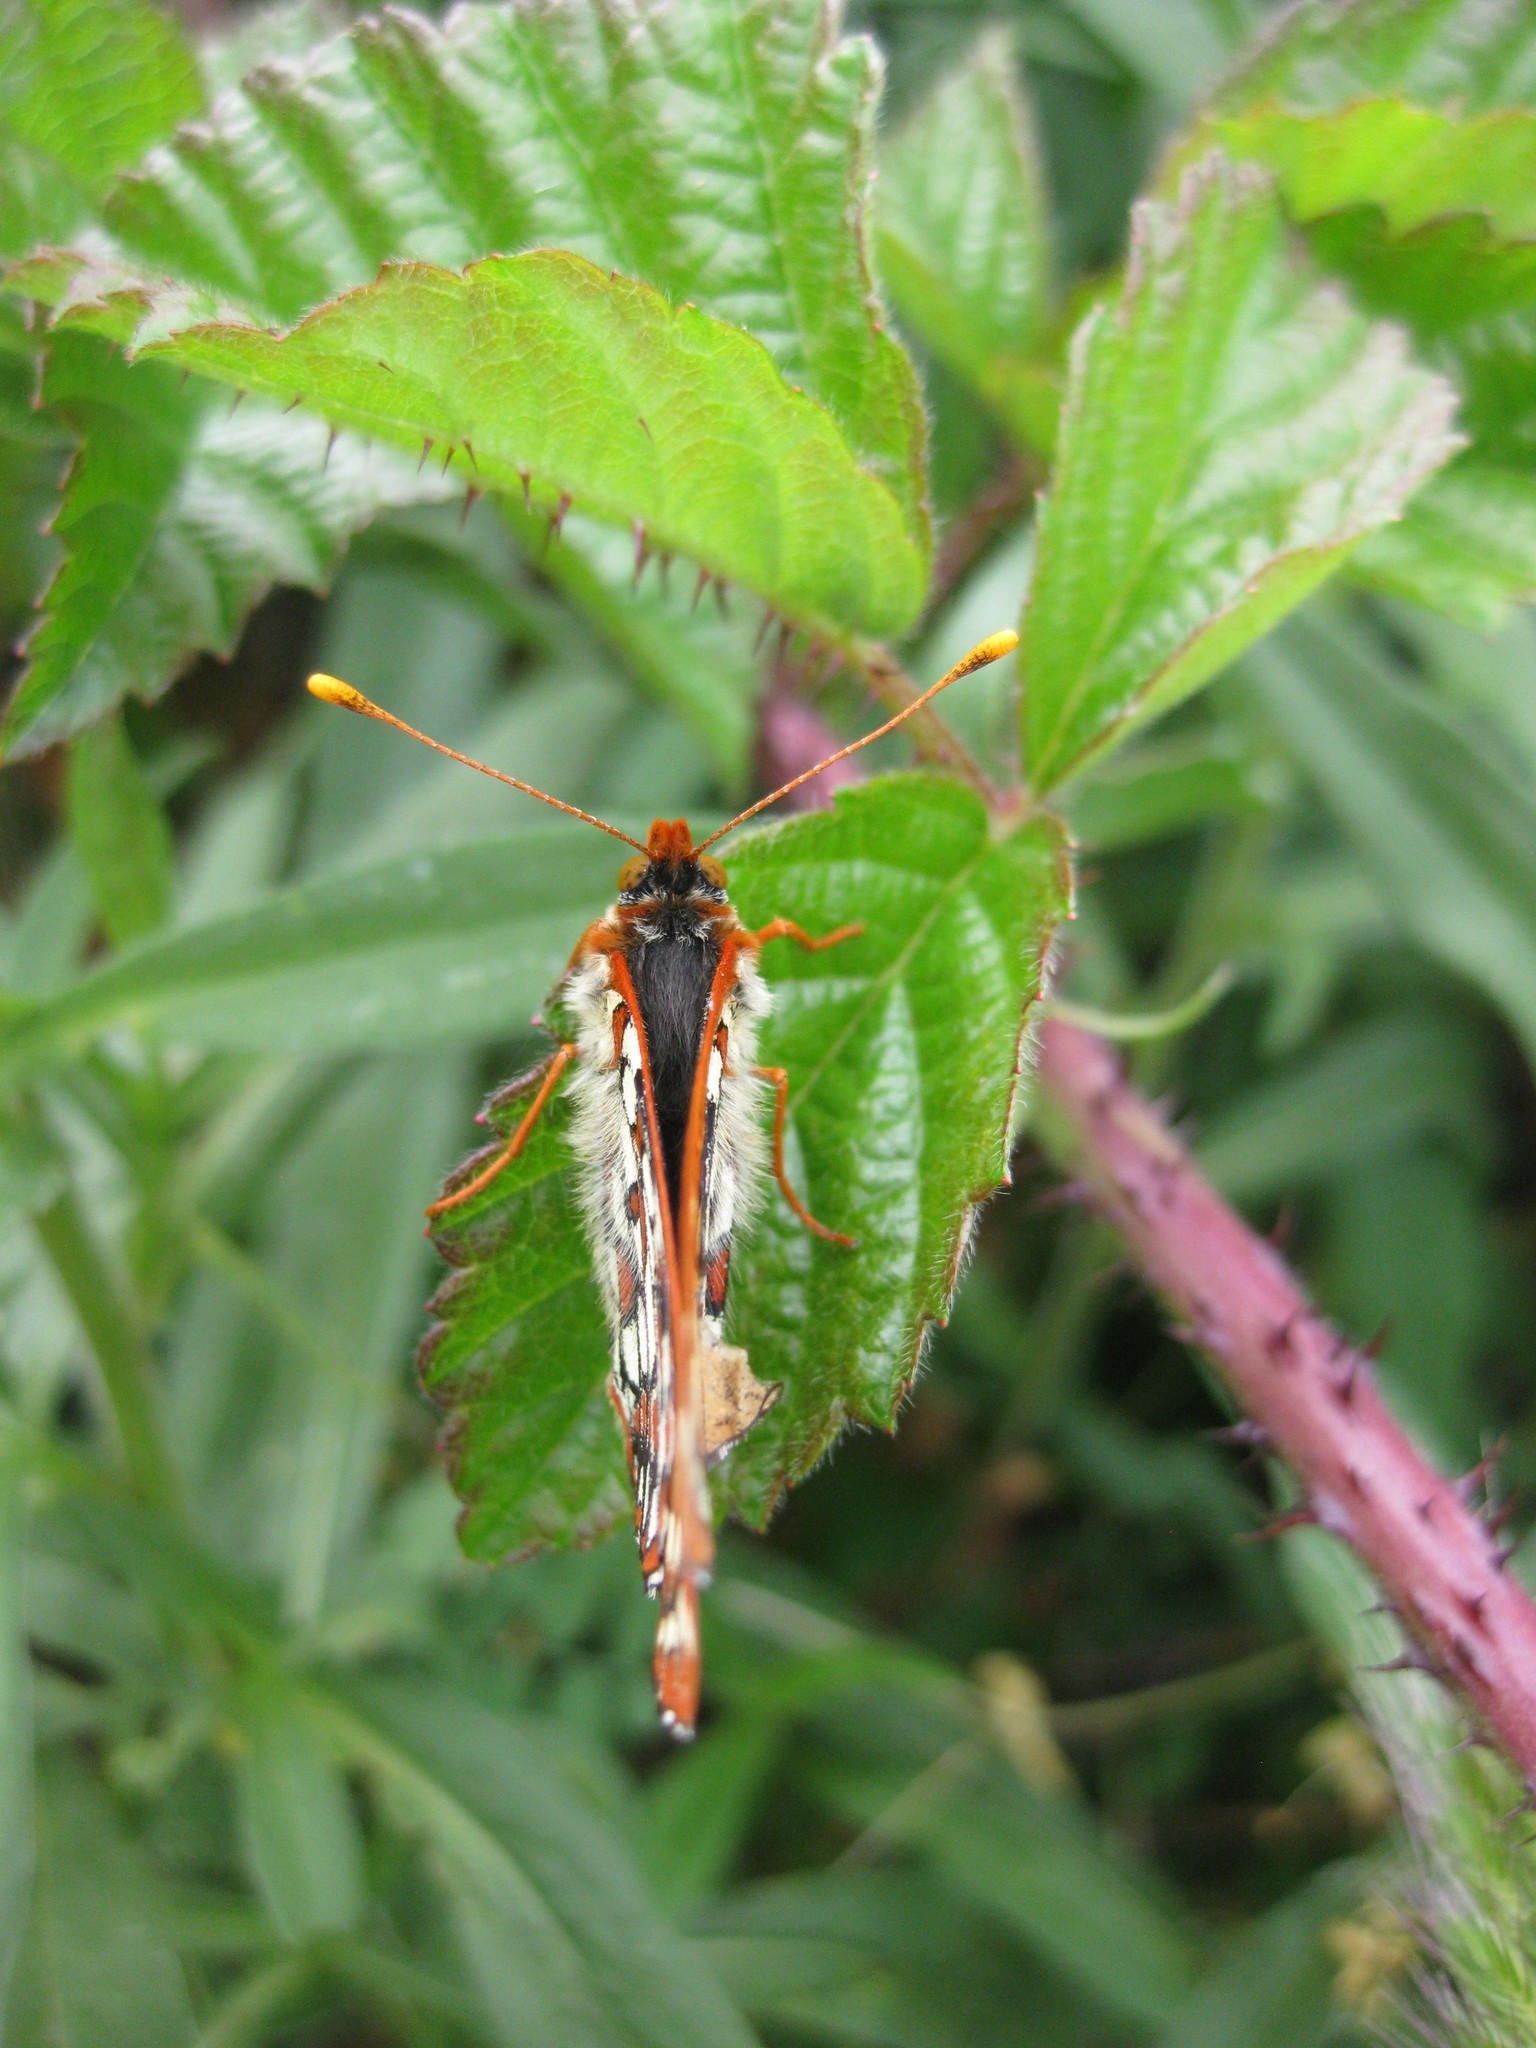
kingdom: Animalia
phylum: Arthropoda
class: Insecta
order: Lepidoptera
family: Nymphalidae
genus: Occidryas
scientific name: Occidryas chalcedona
